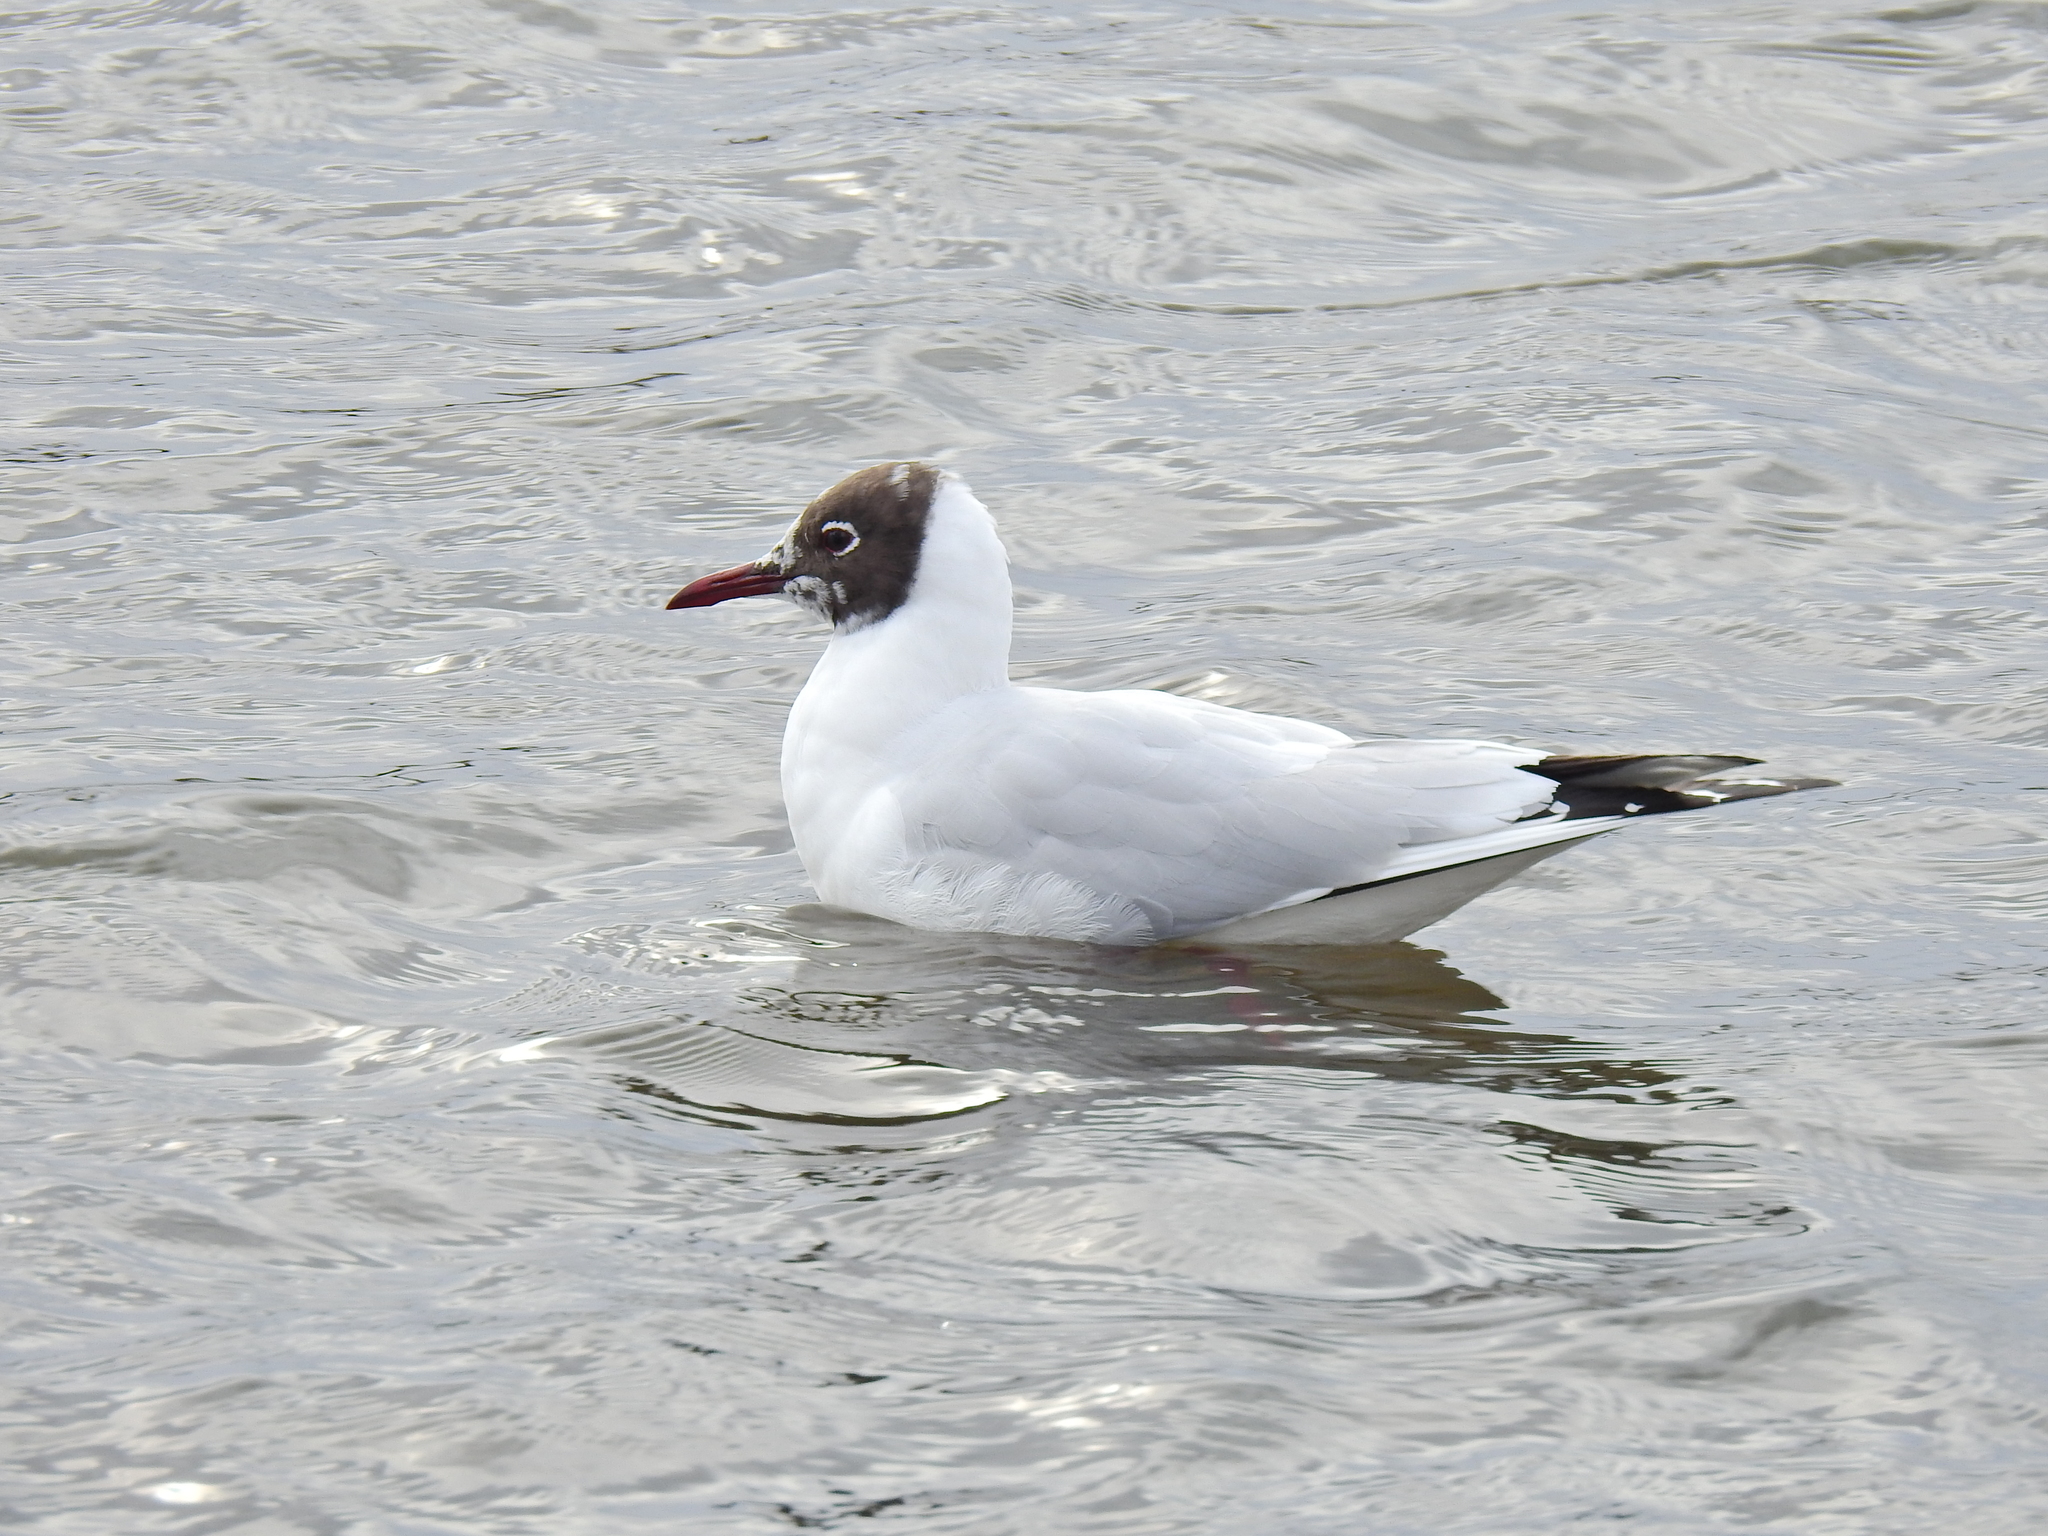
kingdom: Animalia
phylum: Chordata
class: Aves
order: Charadriiformes
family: Laridae
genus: Chroicocephalus
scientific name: Chroicocephalus ridibundus
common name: Black-headed gull
